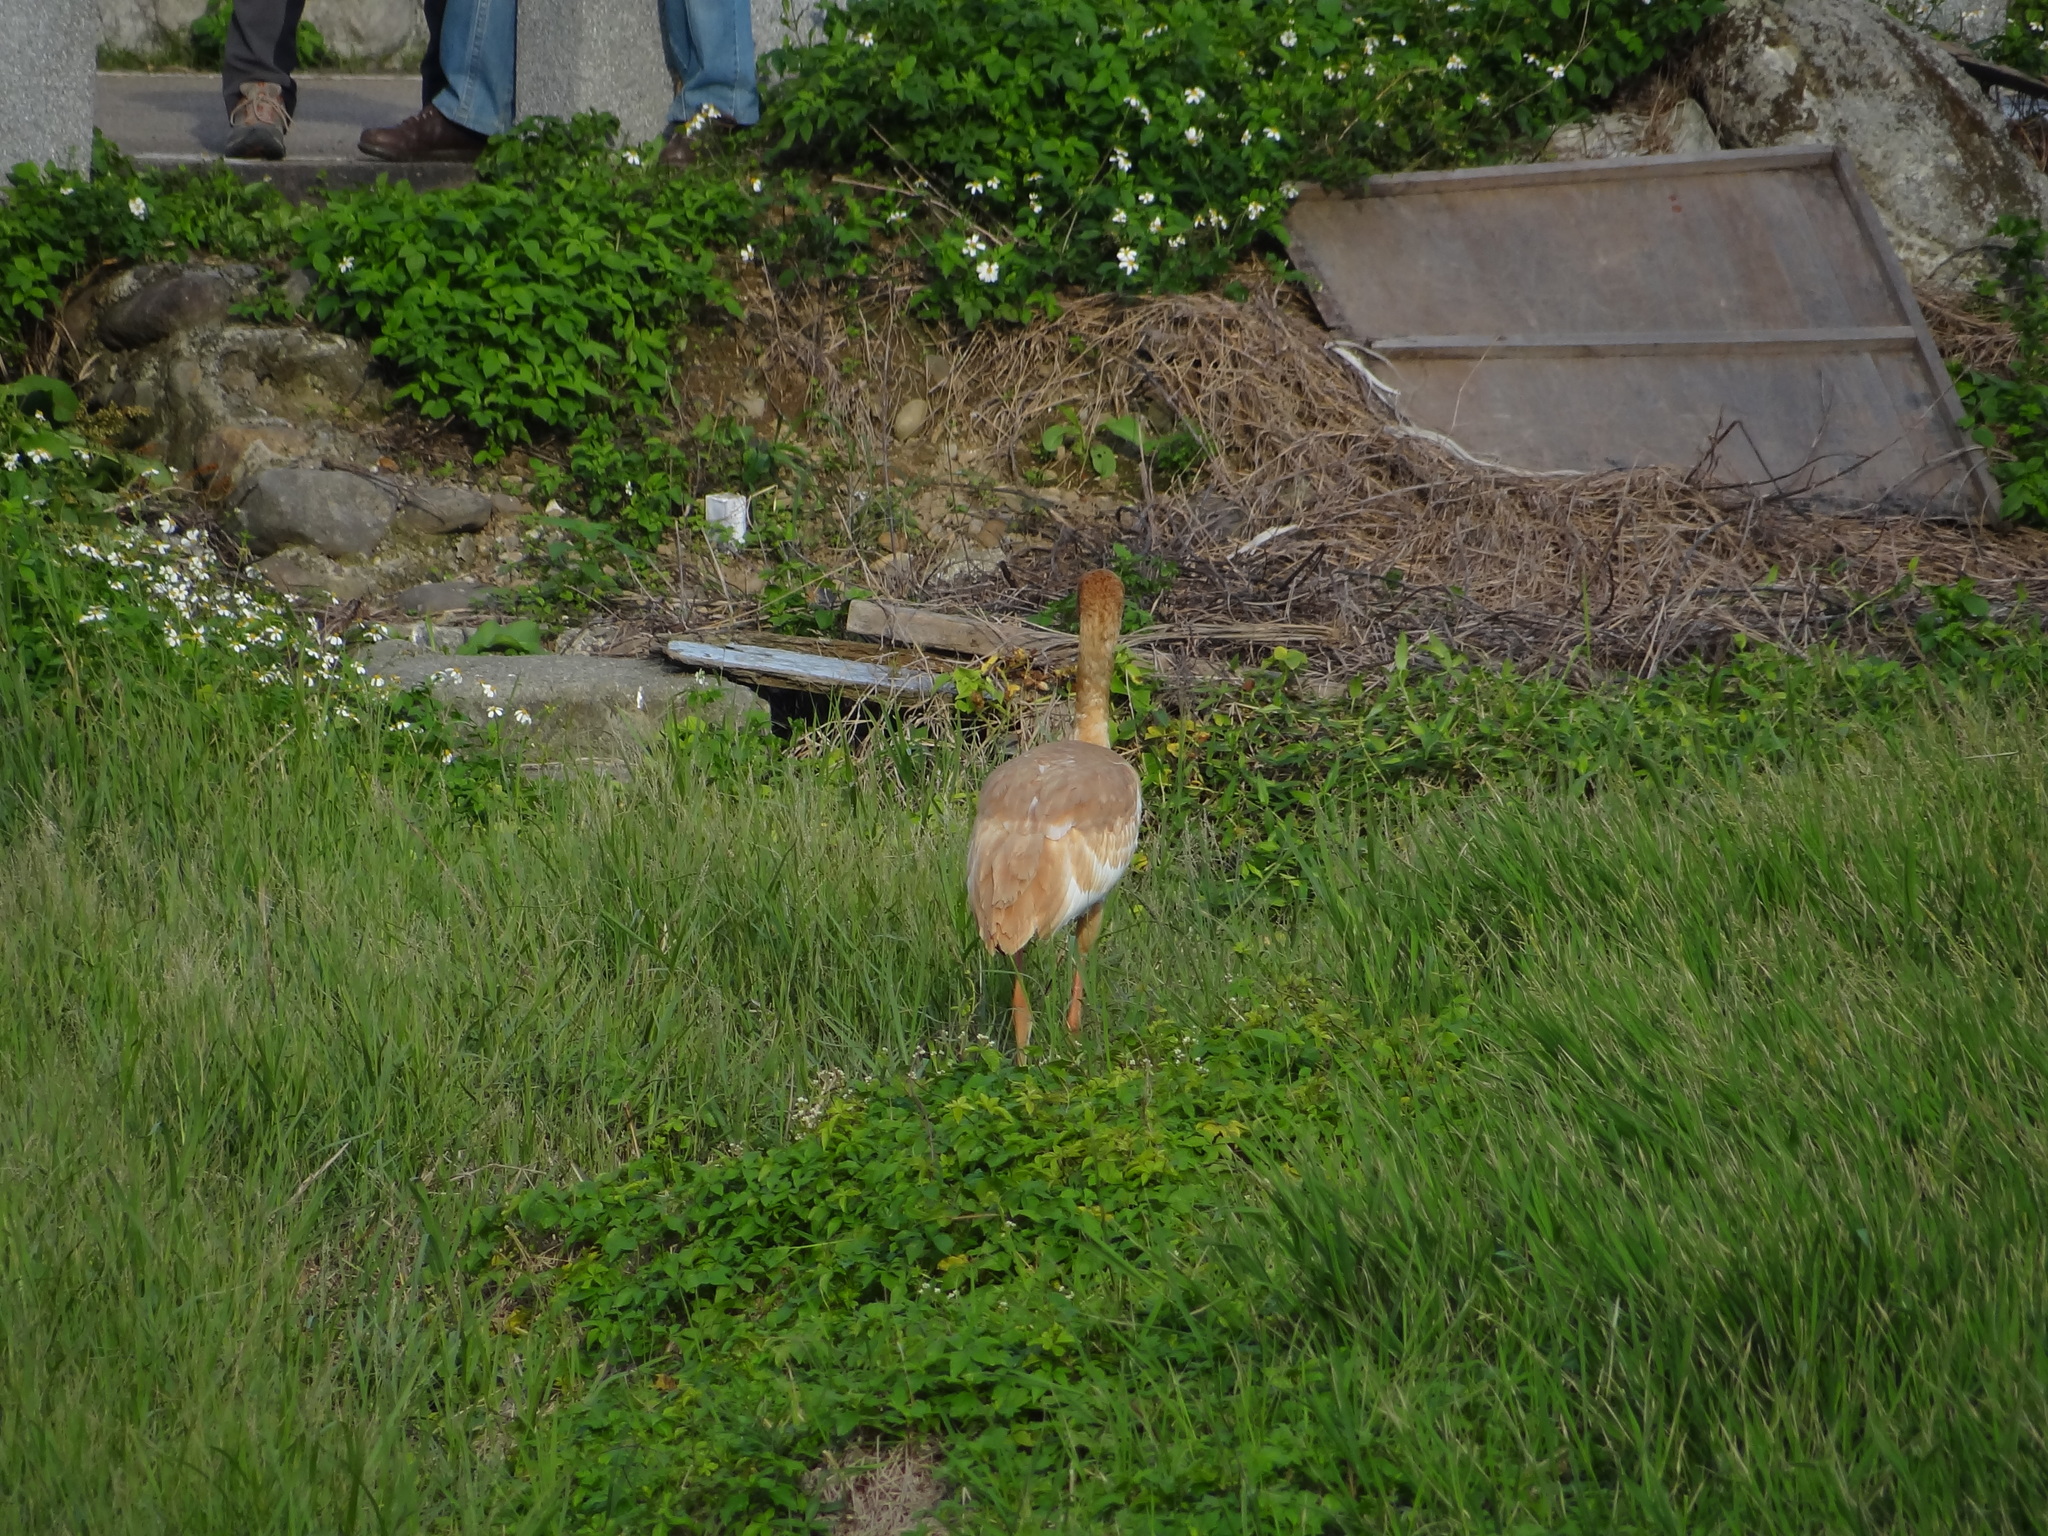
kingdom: Animalia
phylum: Chordata
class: Aves
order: Gruiformes
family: Gruidae
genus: Grus
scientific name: Grus leucogeranus
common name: Siberian crane
